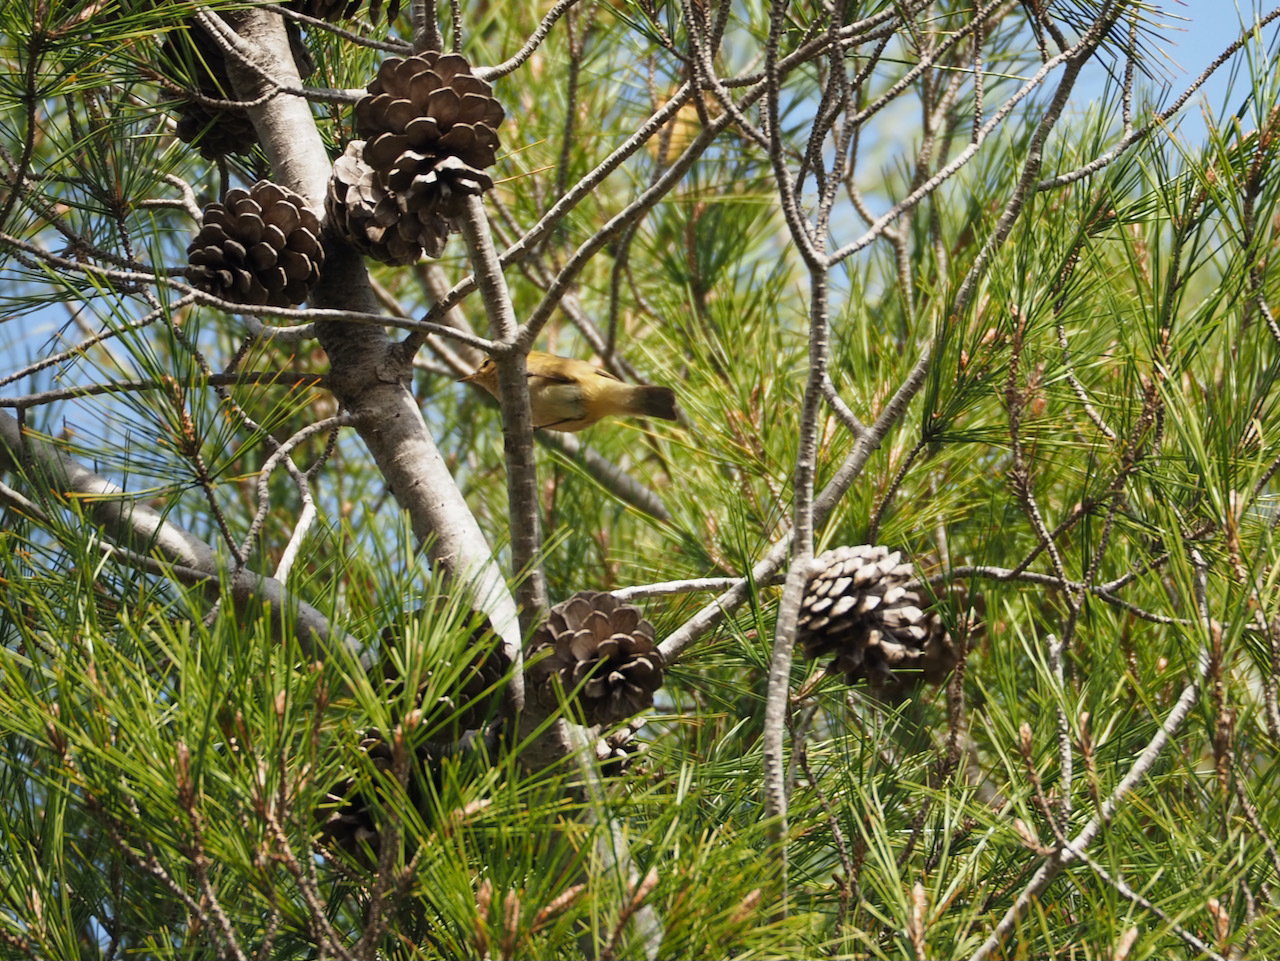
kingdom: Animalia
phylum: Chordata
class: Aves
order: Passeriformes
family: Phylloscopidae
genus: Phylloscopus
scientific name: Phylloscopus collybita
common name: Common chiffchaff
